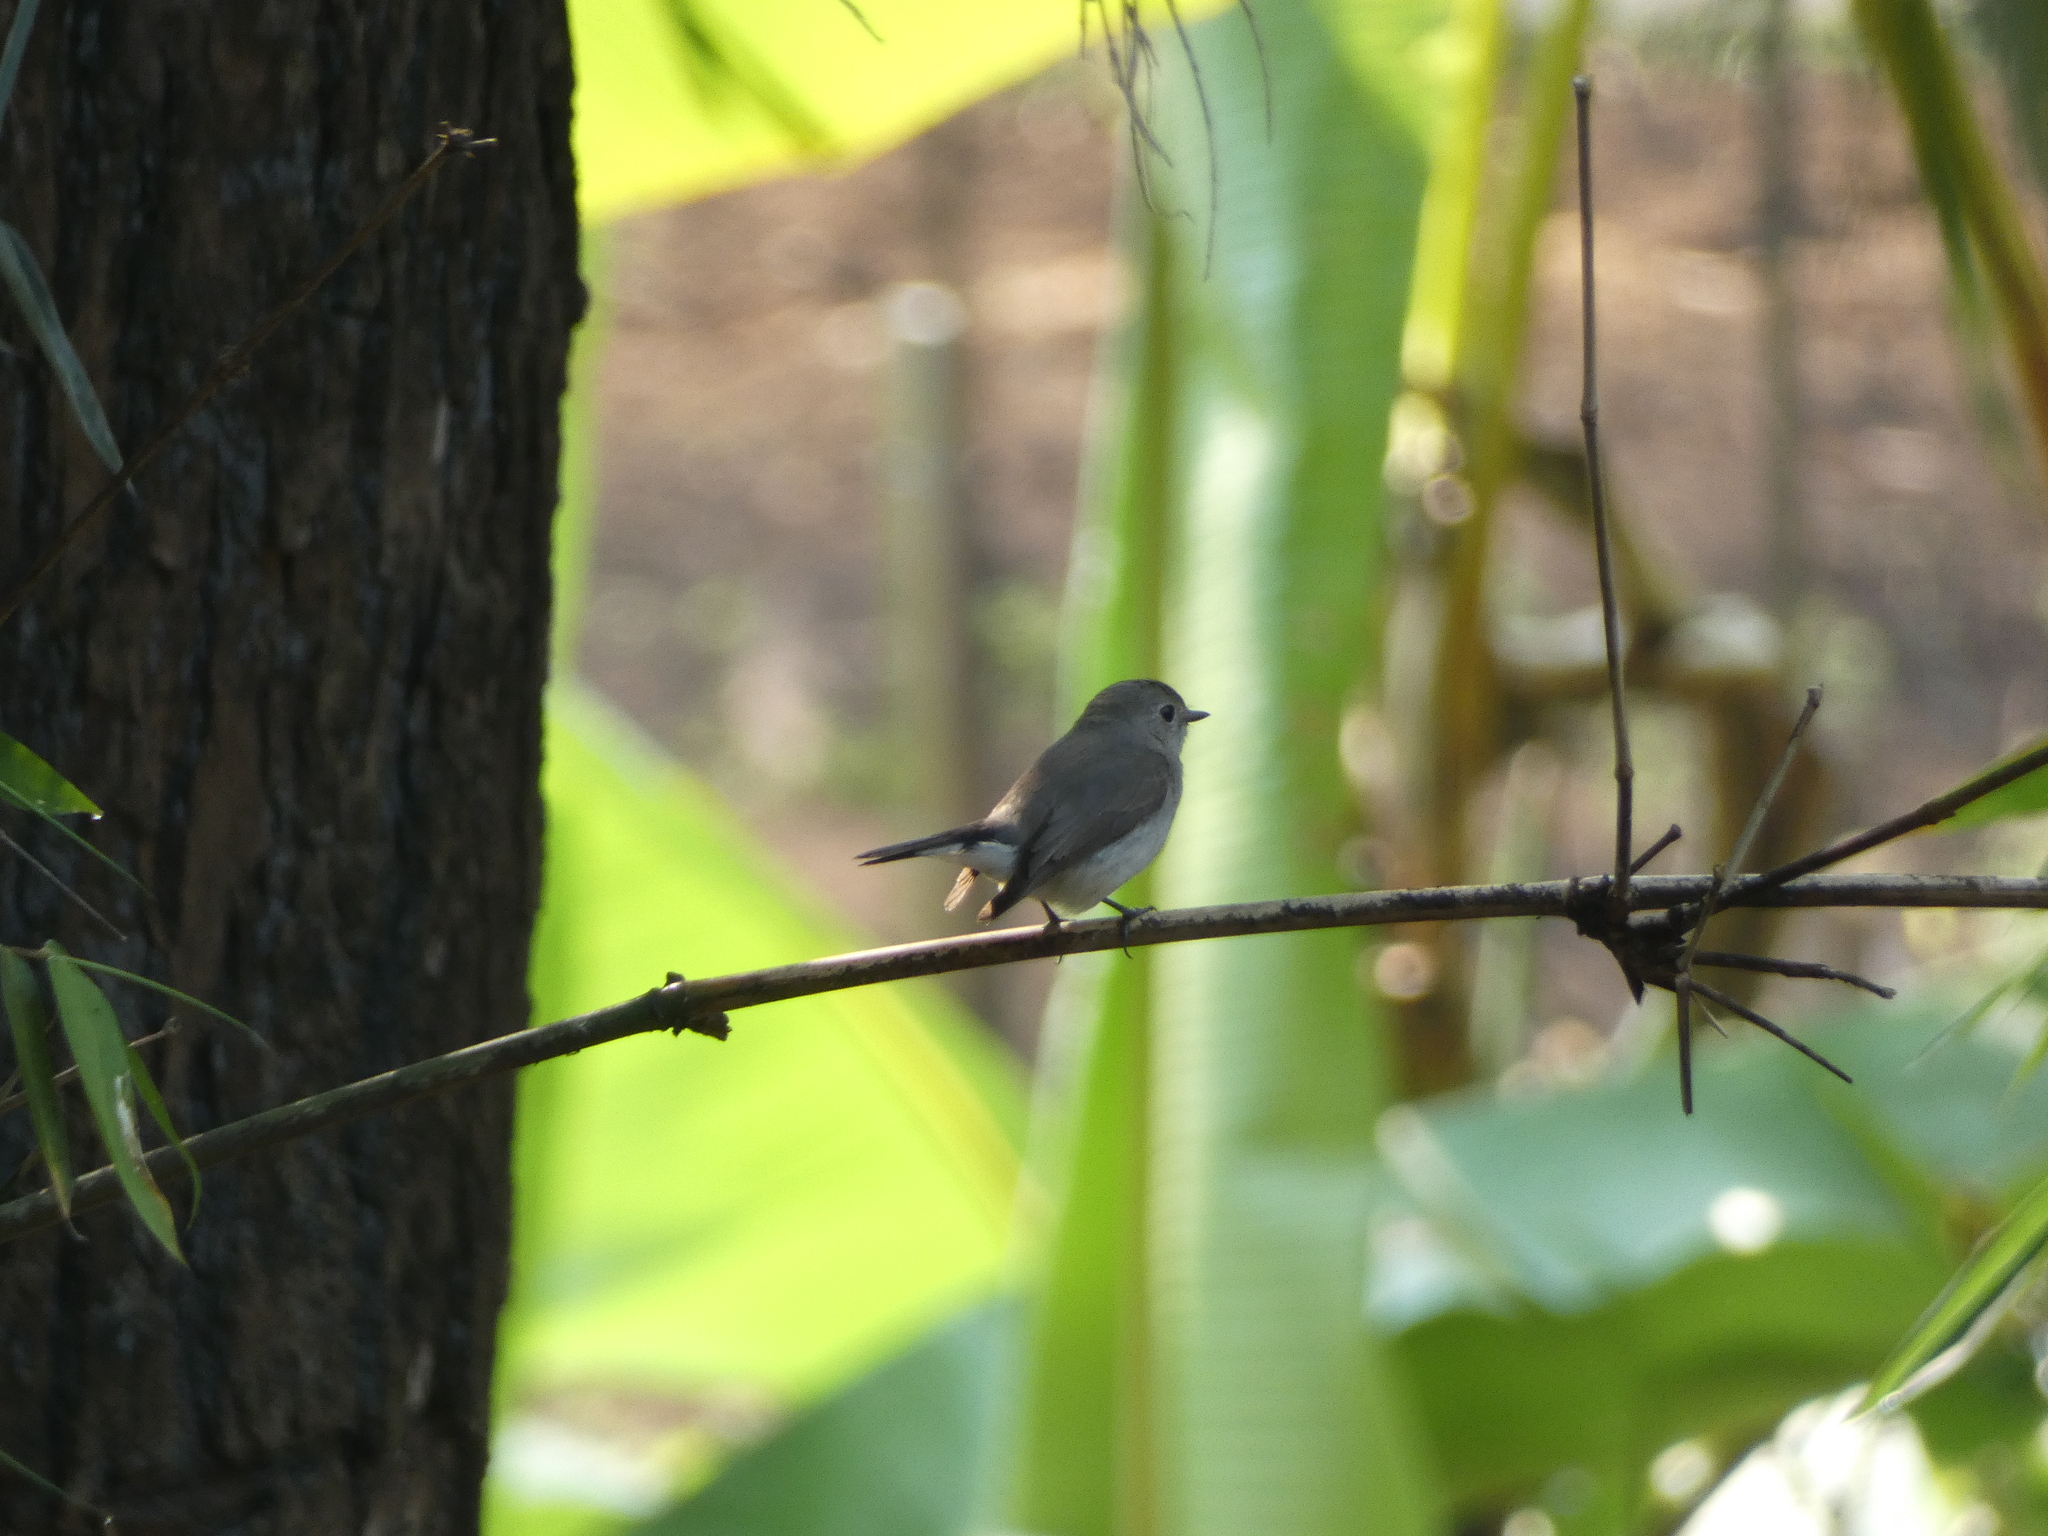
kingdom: Animalia
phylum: Chordata
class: Aves
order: Passeriformes
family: Muscicapidae
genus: Ficedula
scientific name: Ficedula albicilla
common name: Taiga flycatcher
